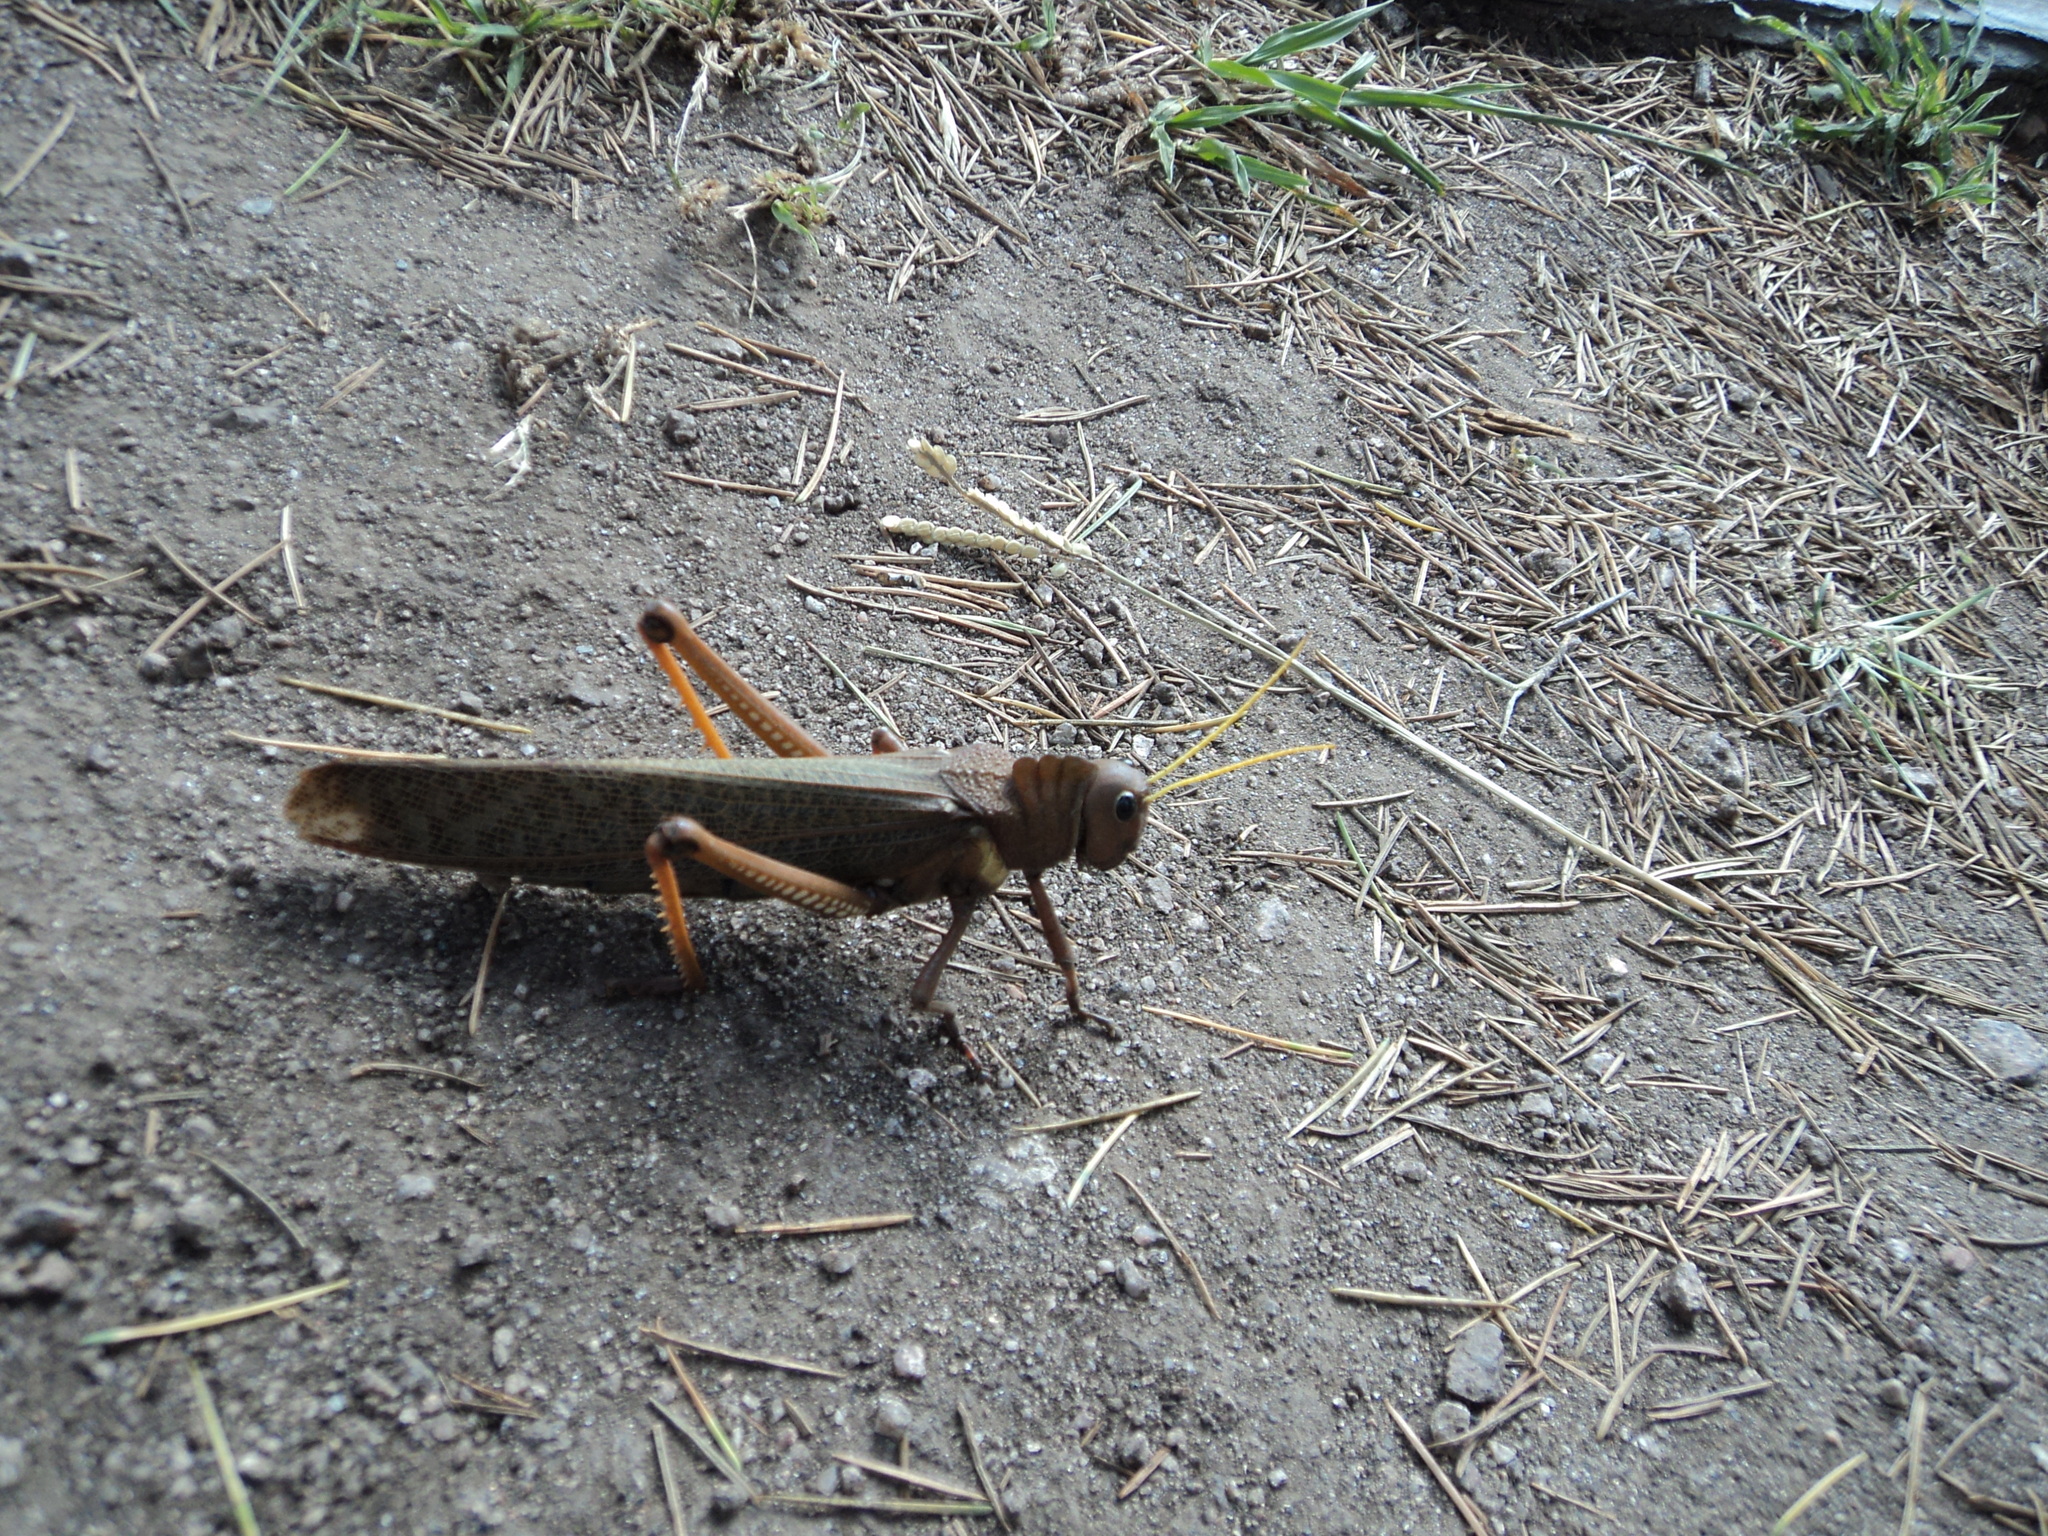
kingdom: Animalia
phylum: Arthropoda
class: Insecta
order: Orthoptera
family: Romaleidae
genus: Tropidacris
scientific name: Tropidacris collaris
